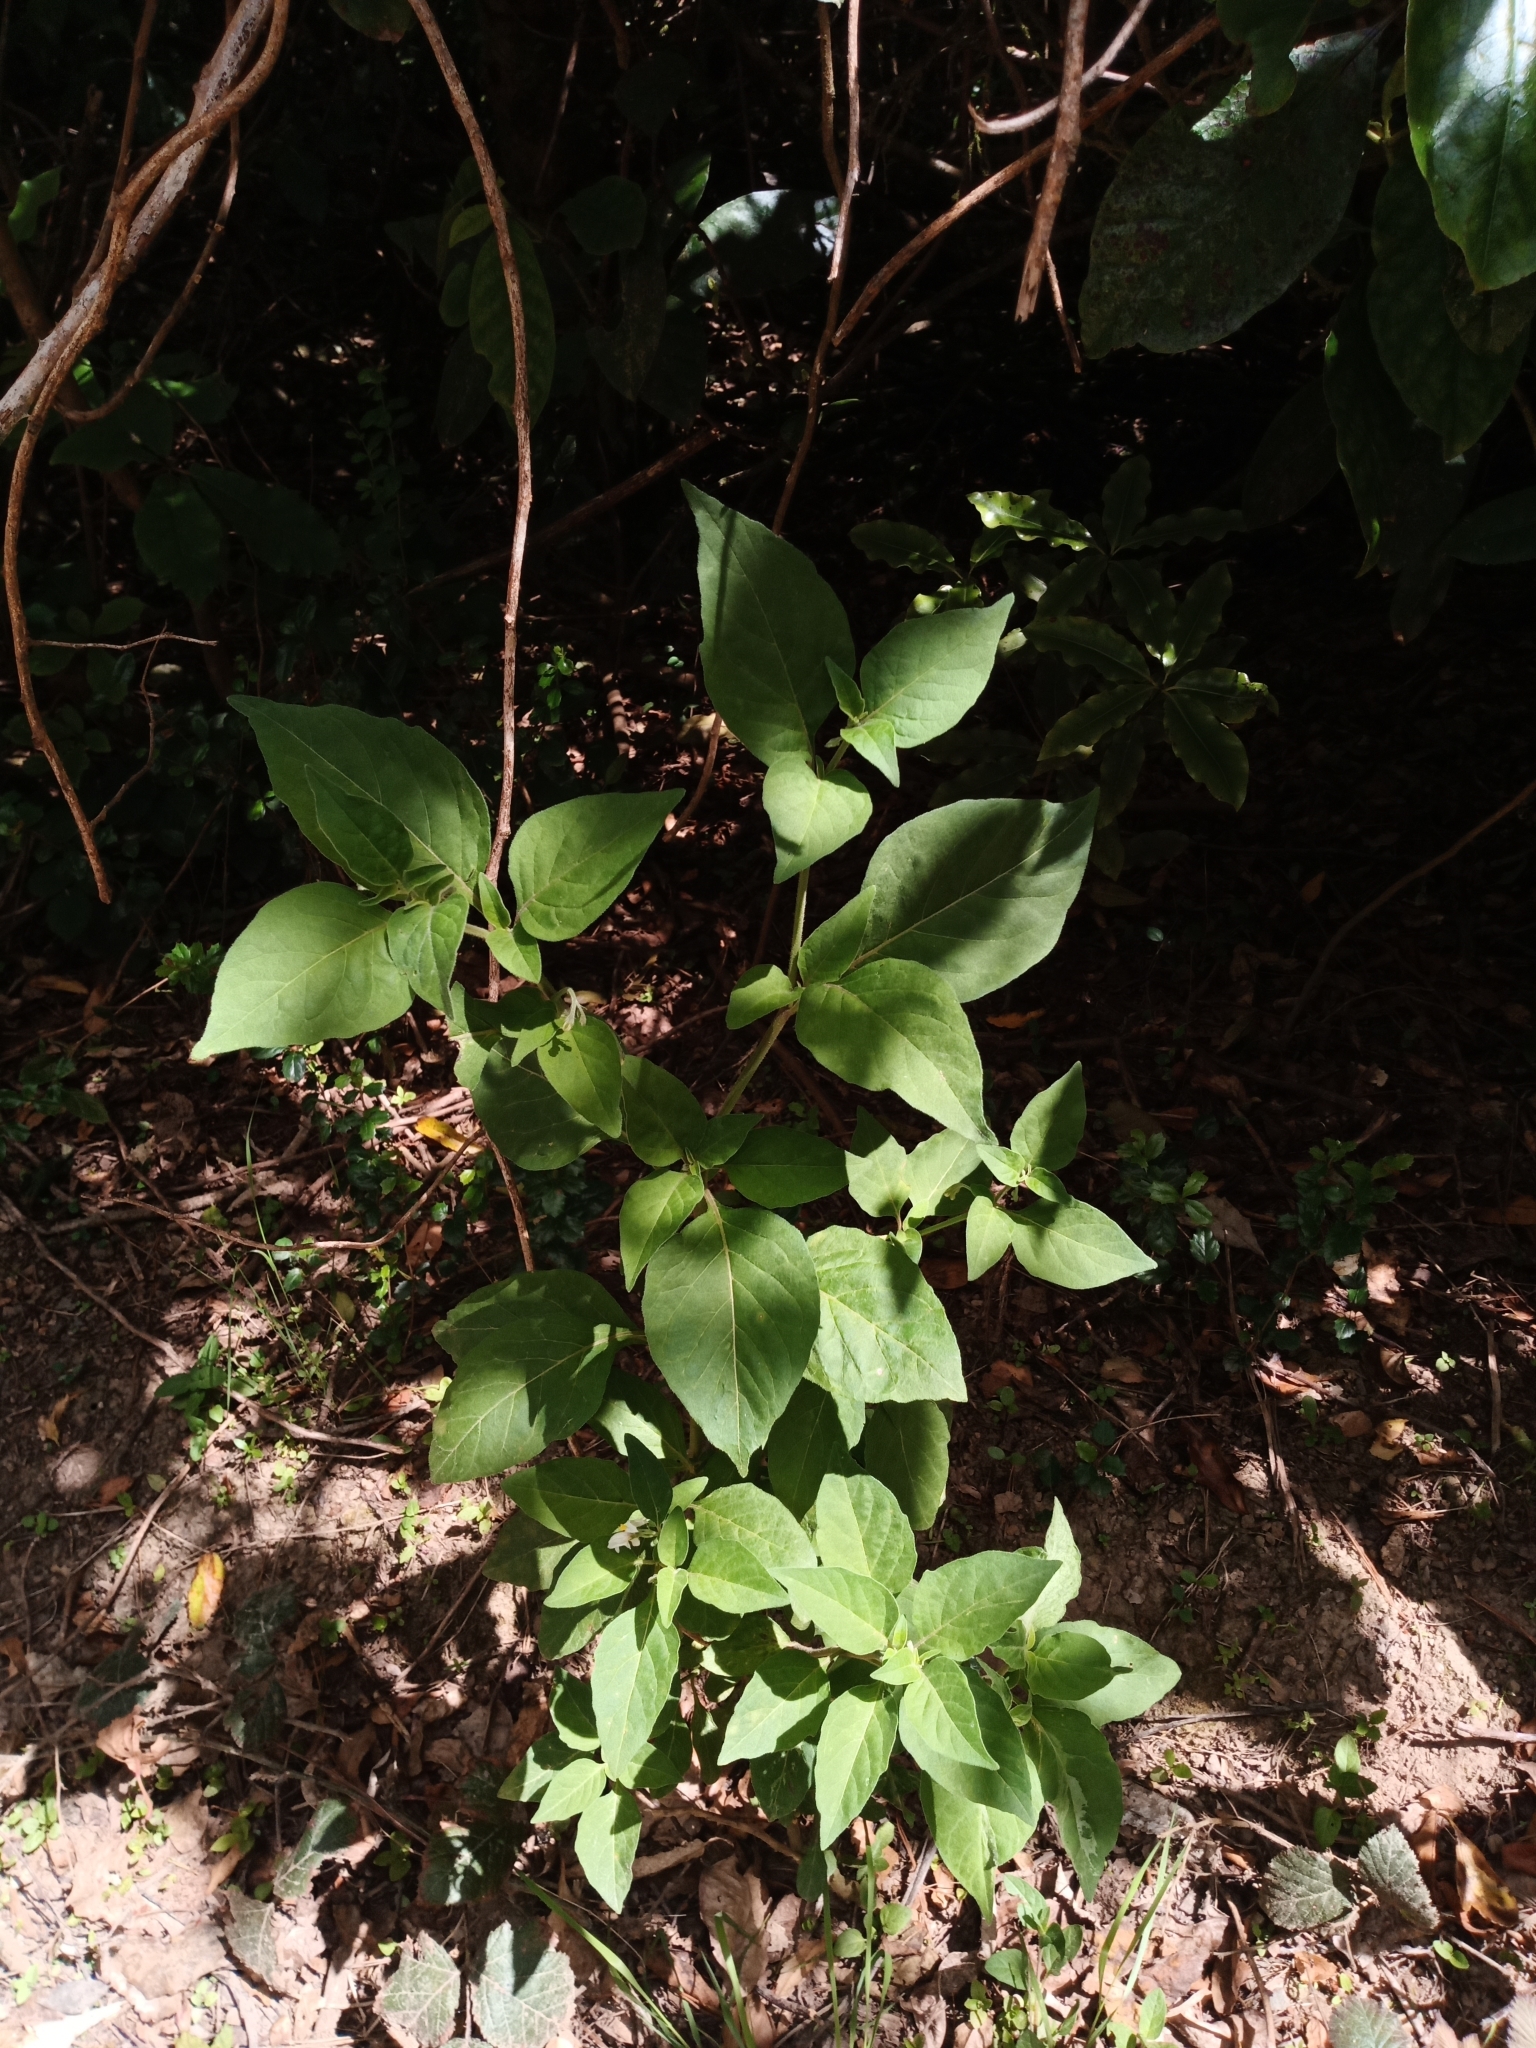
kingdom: Plantae
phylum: Tracheophyta
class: Magnoliopsida
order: Solanales
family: Solanaceae
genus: Solanum
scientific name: Solanum chenopodioides
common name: Tall nightshade
